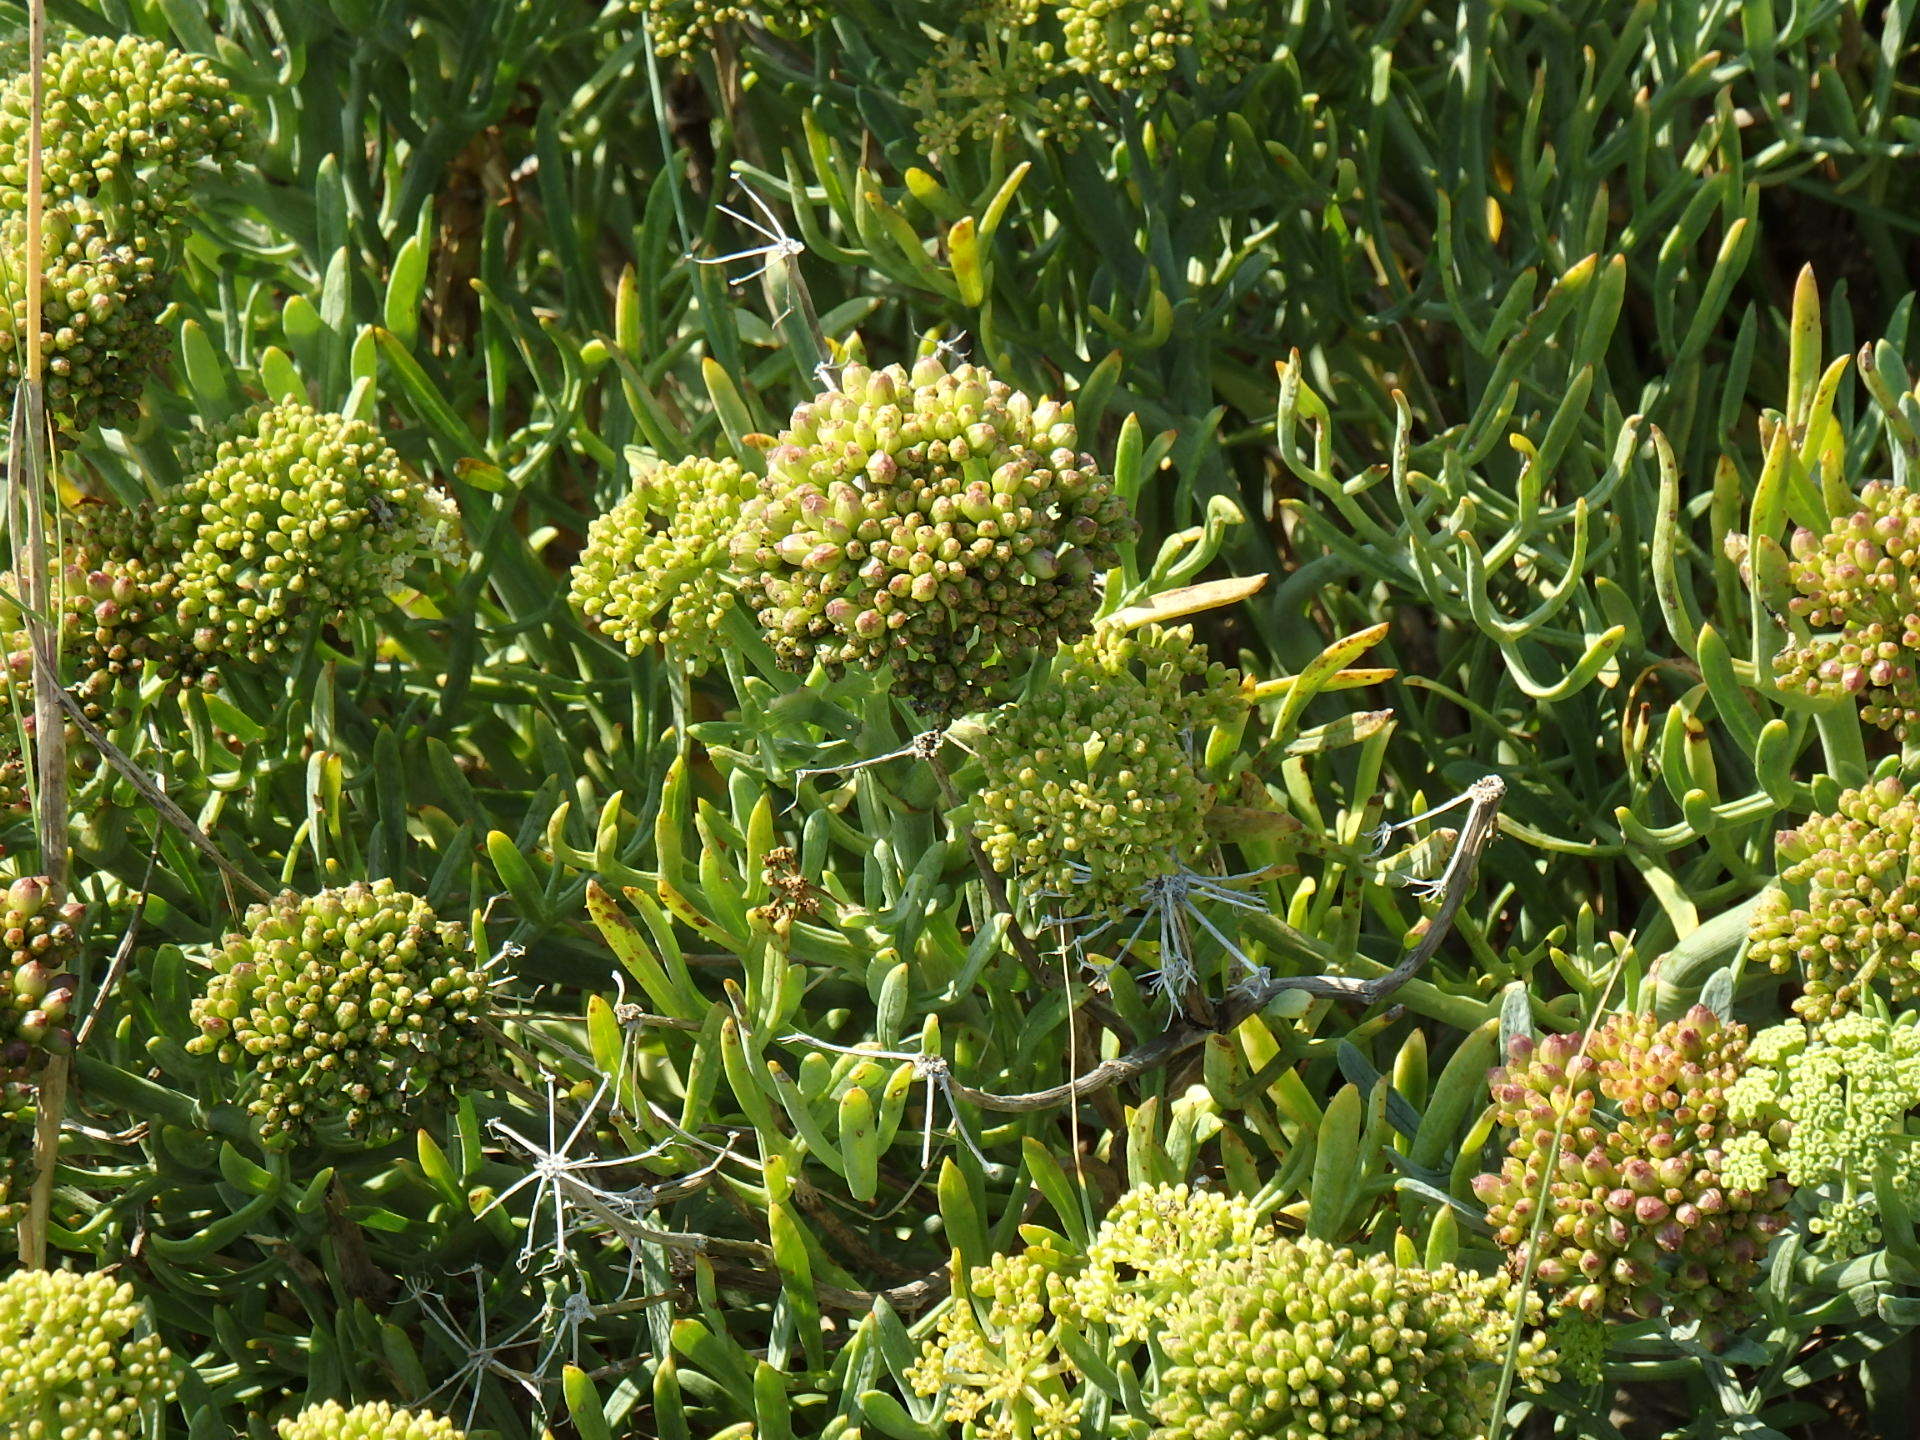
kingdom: Plantae
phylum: Tracheophyta
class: Magnoliopsida
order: Apiales
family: Apiaceae
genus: Crithmum
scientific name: Crithmum maritimum
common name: Rock samphire
